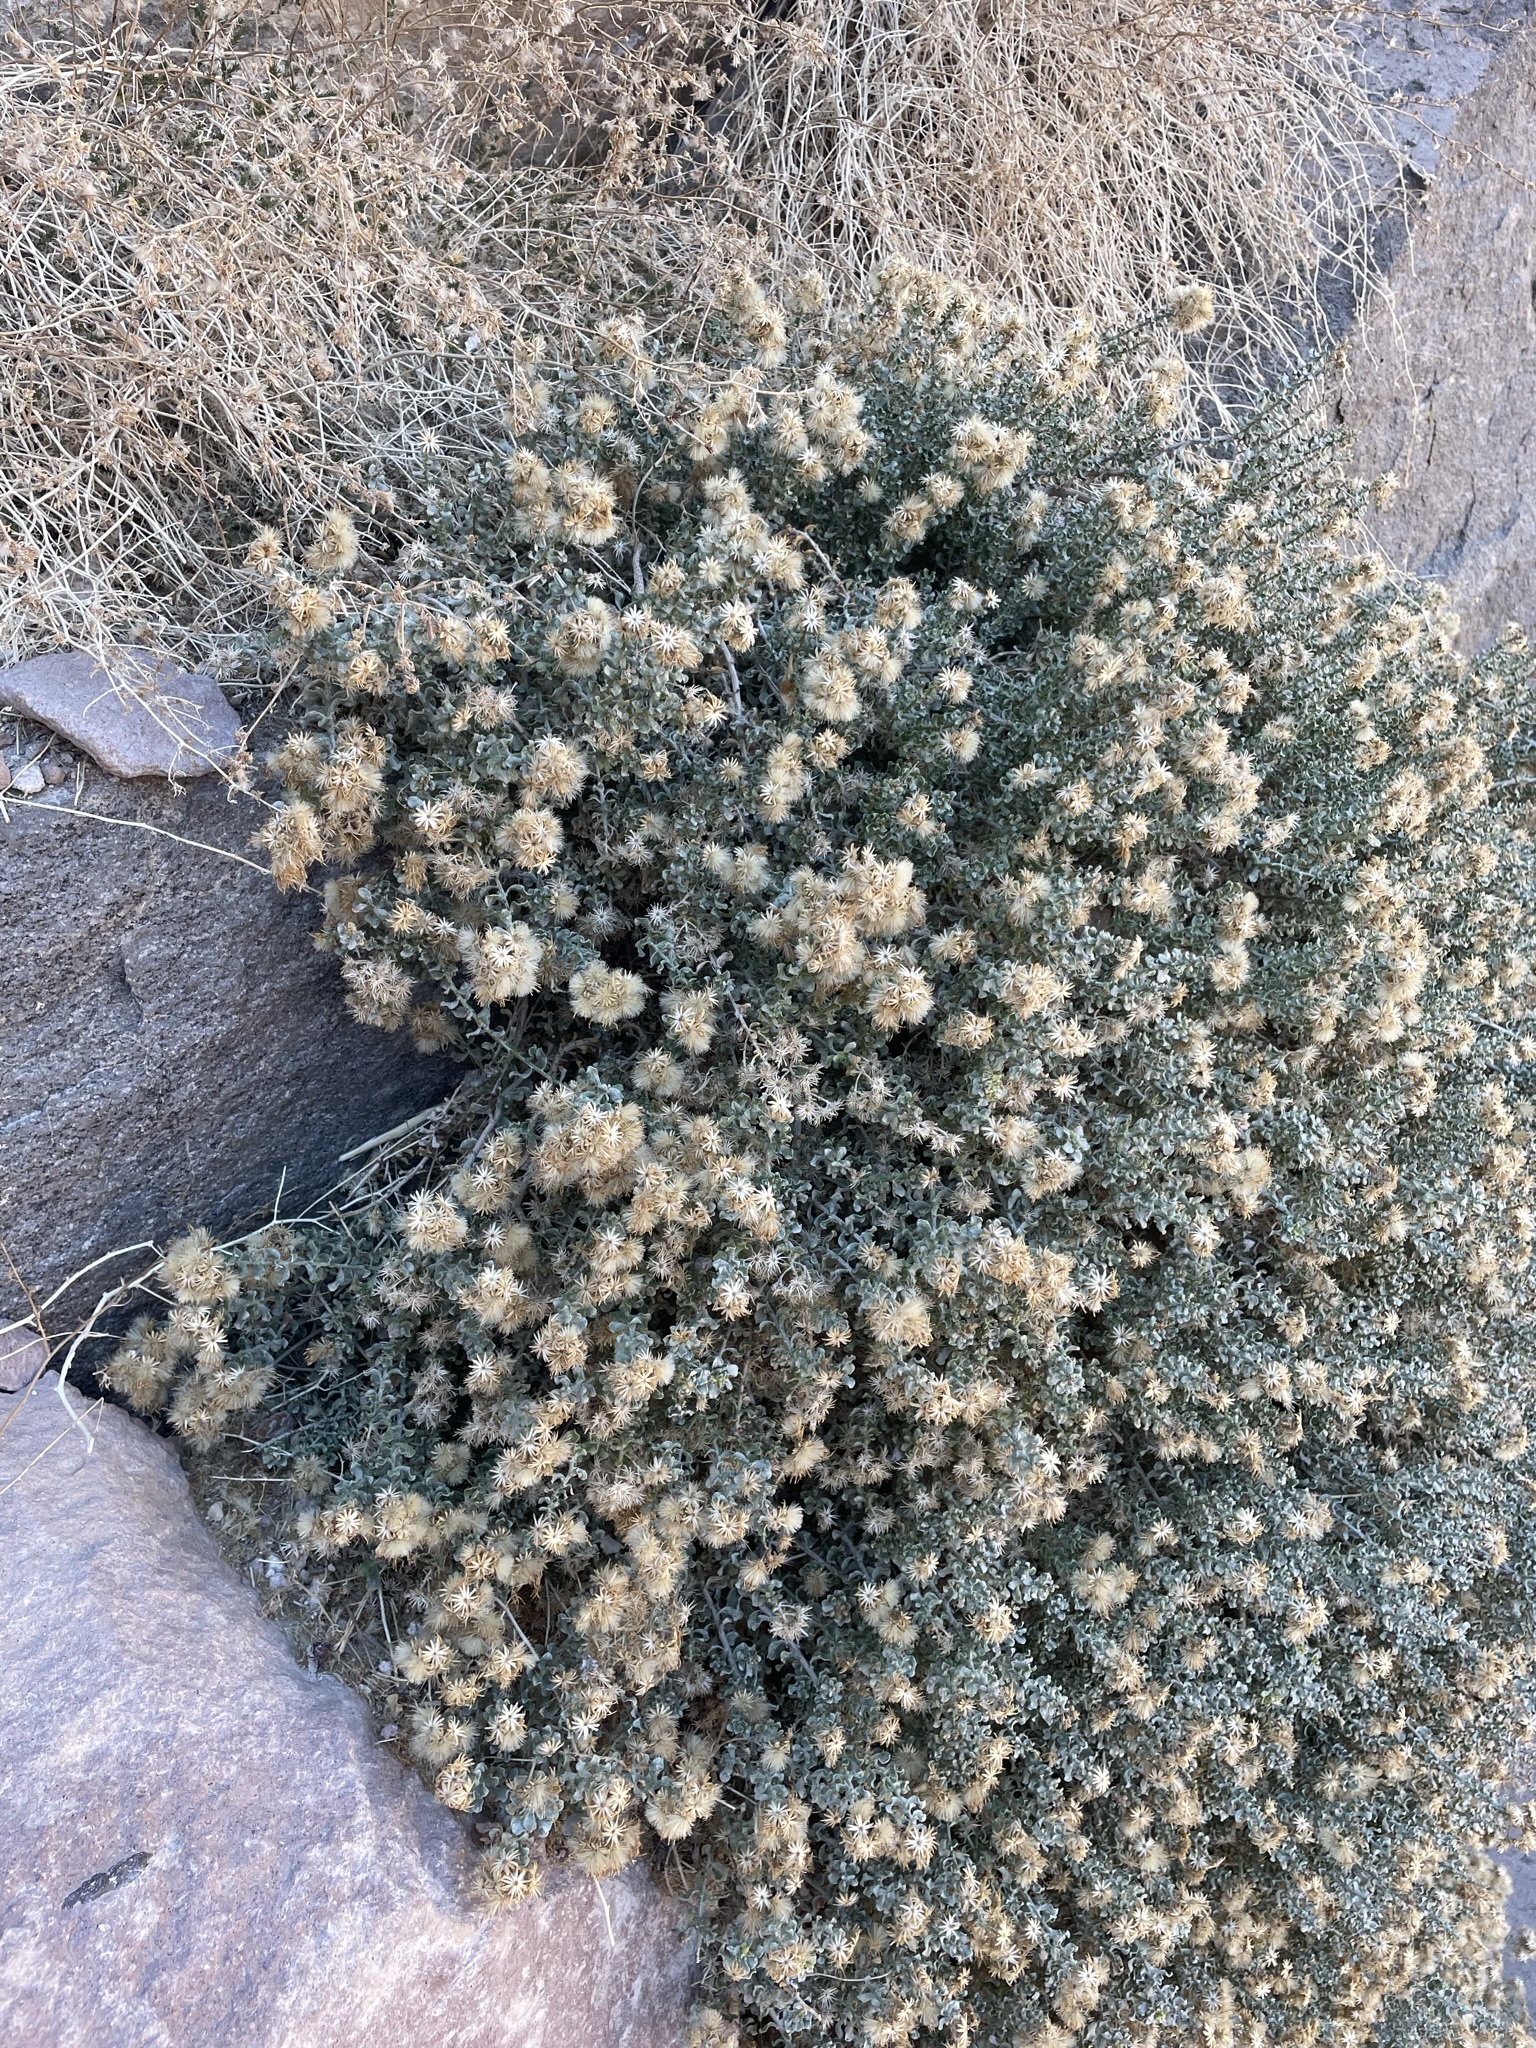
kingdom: Plantae
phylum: Tracheophyta
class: Magnoliopsida
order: Asterales
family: Asteraceae
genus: Ericameria
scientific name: Ericameria cuneata
